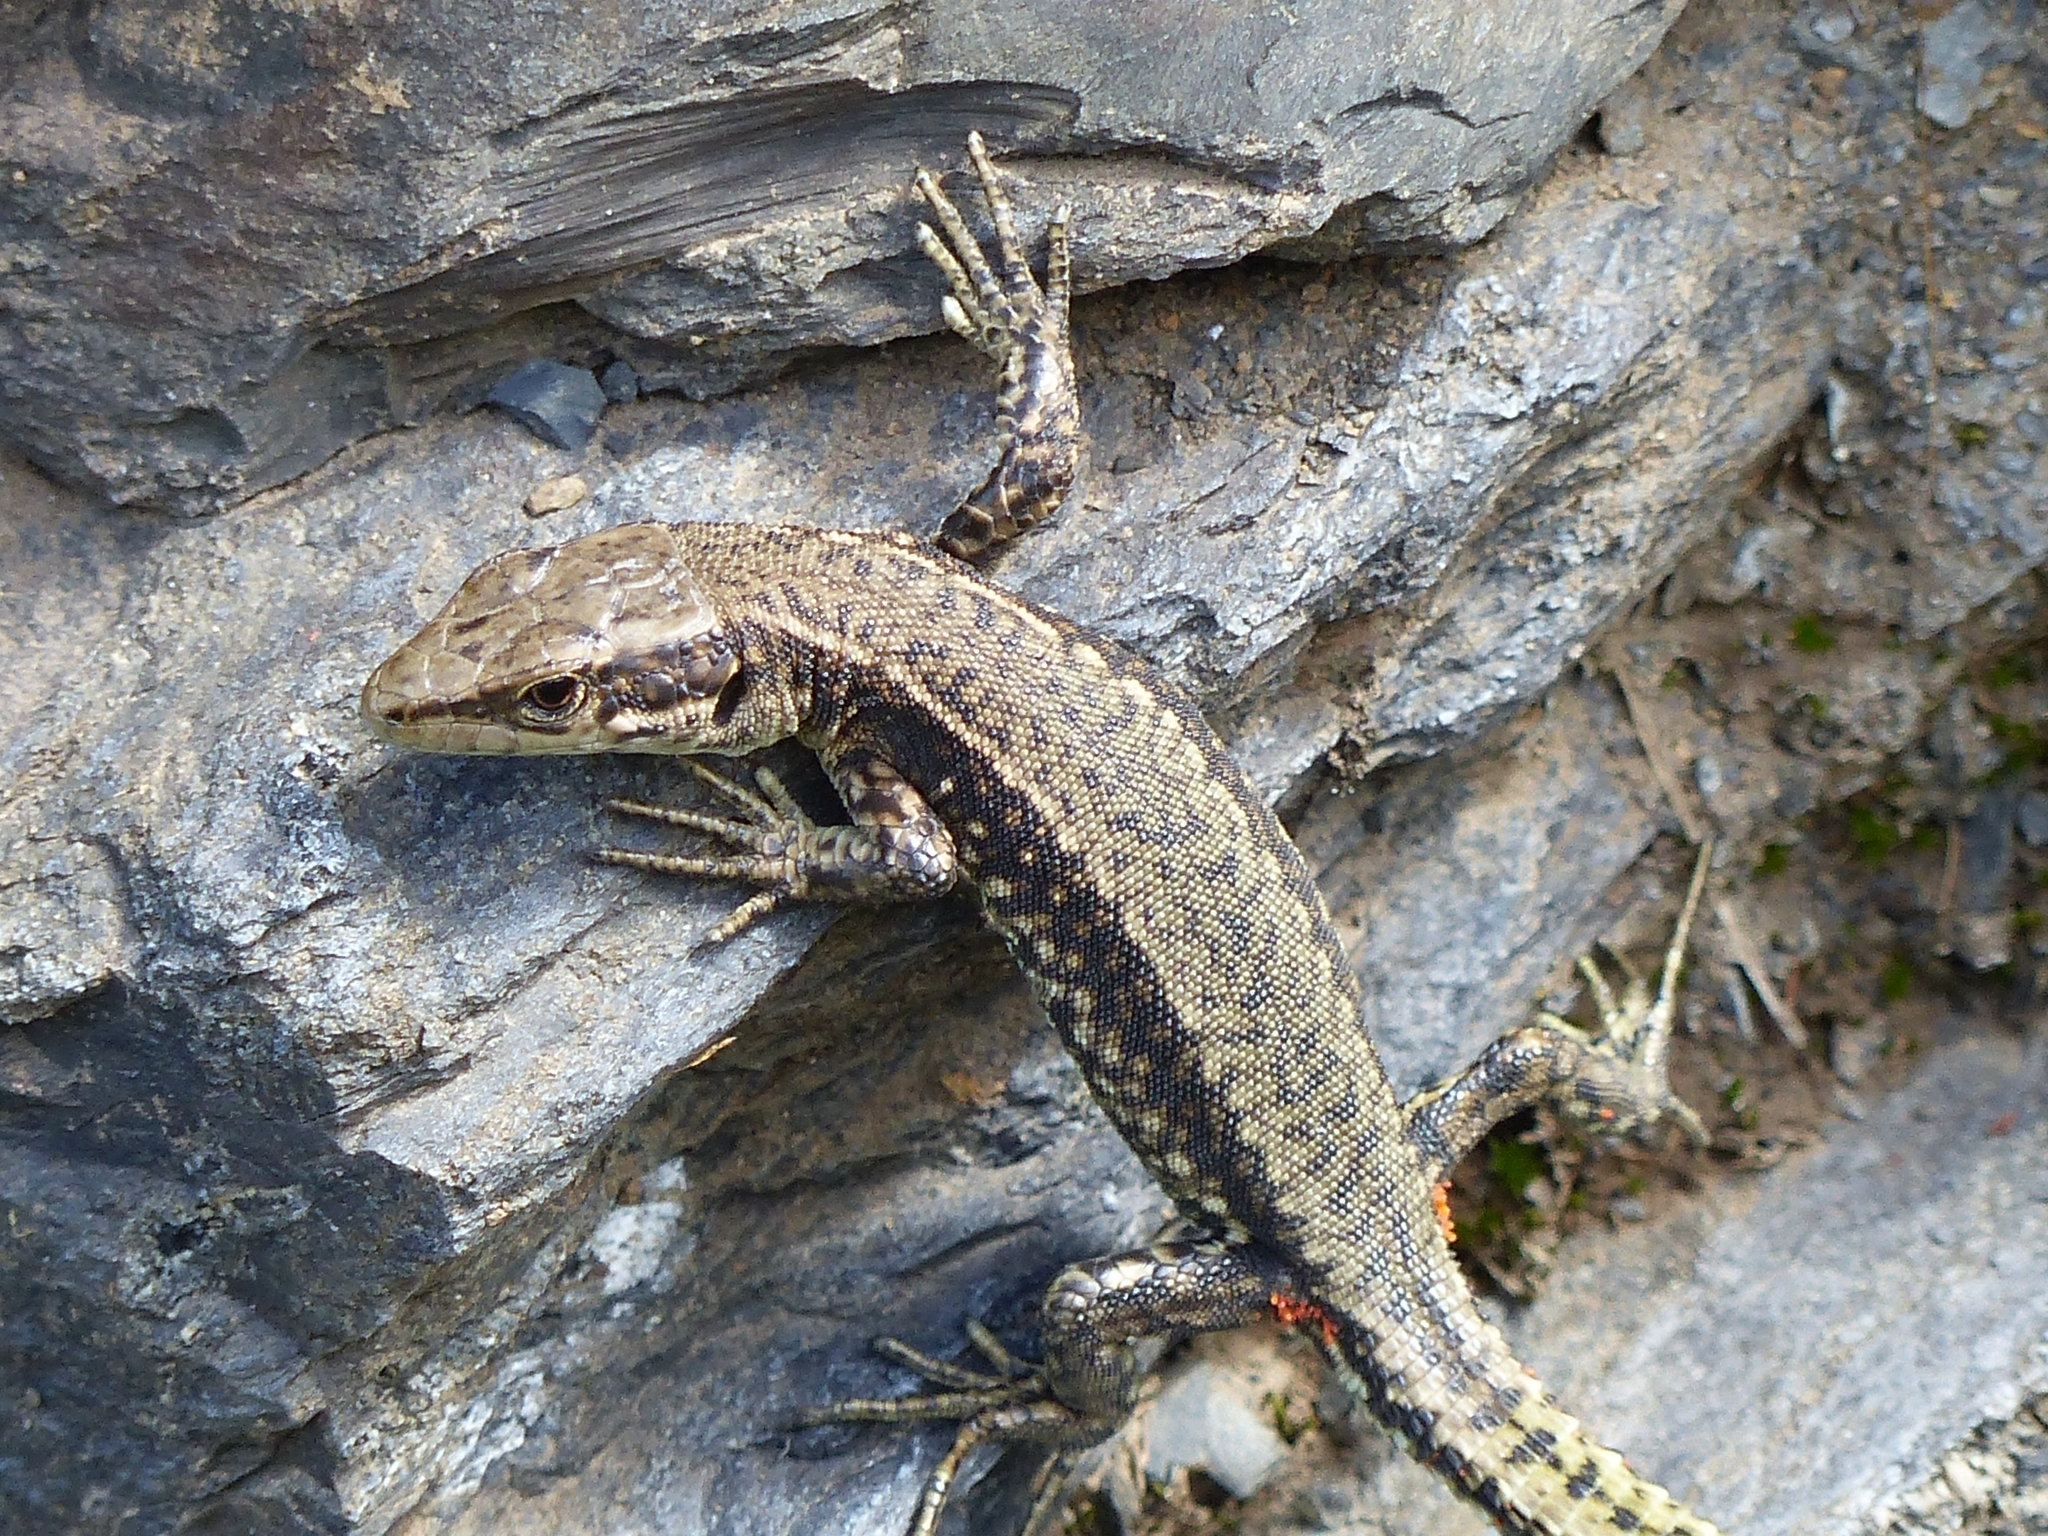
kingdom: Animalia
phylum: Chordata
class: Squamata
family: Lacertidae
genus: Darevskia
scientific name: Darevskia brauneri
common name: Brauner's rock lizard
